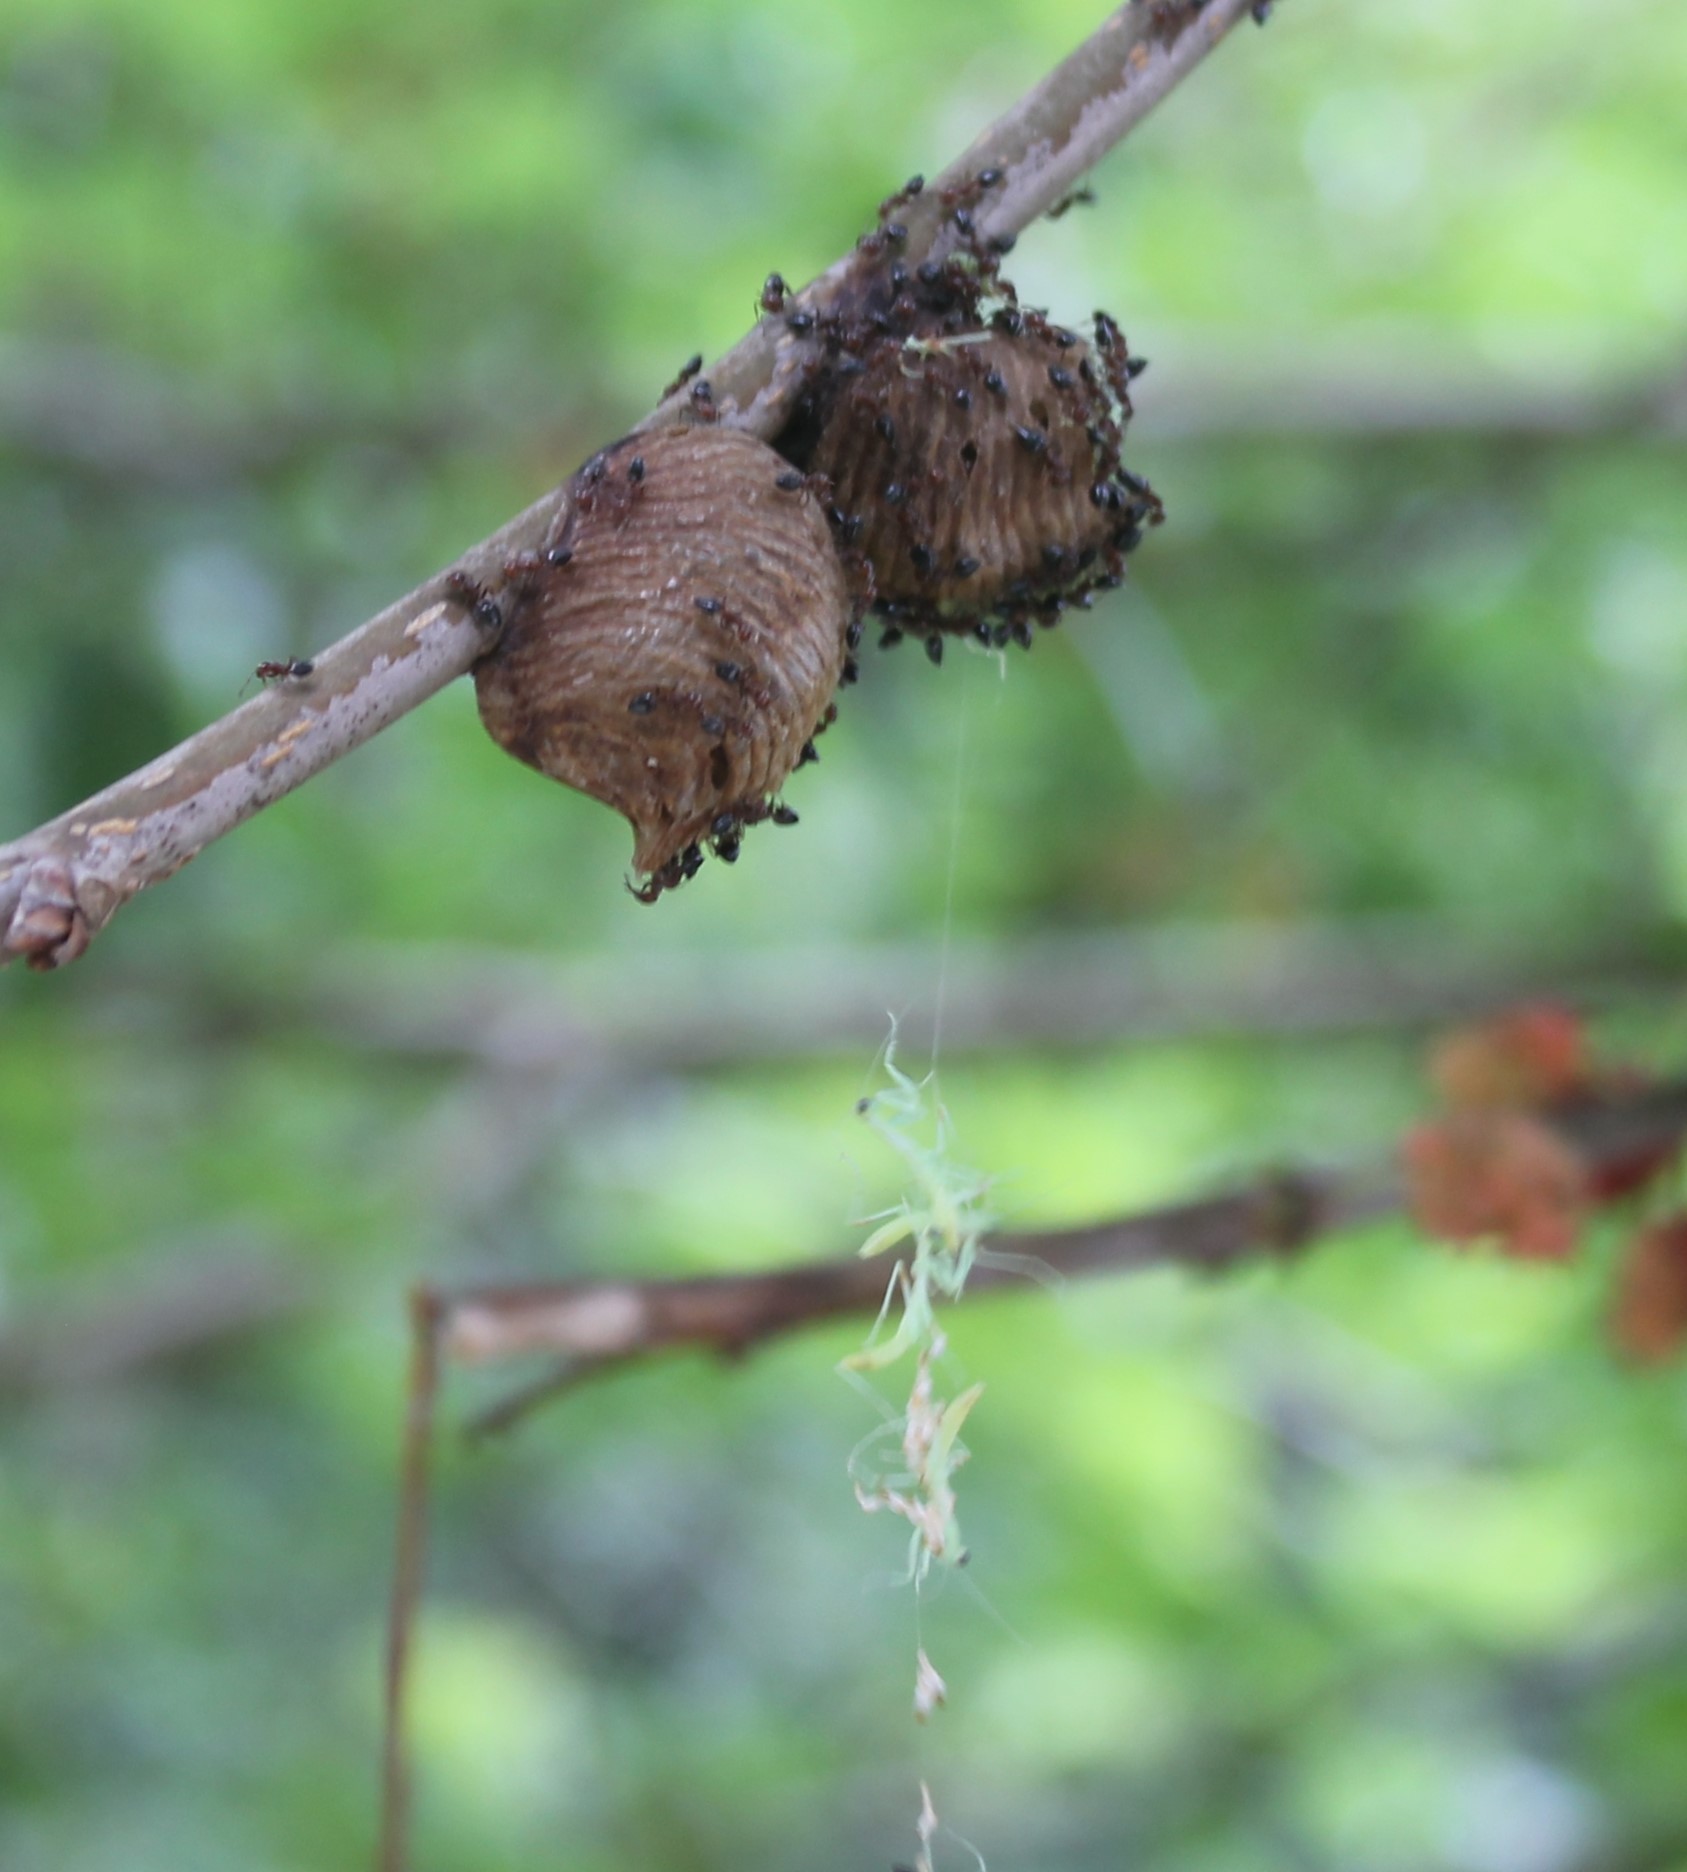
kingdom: Animalia
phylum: Arthropoda
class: Insecta
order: Mantodea
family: Mantidae
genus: Hierodula
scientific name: Hierodula transcaucasica
